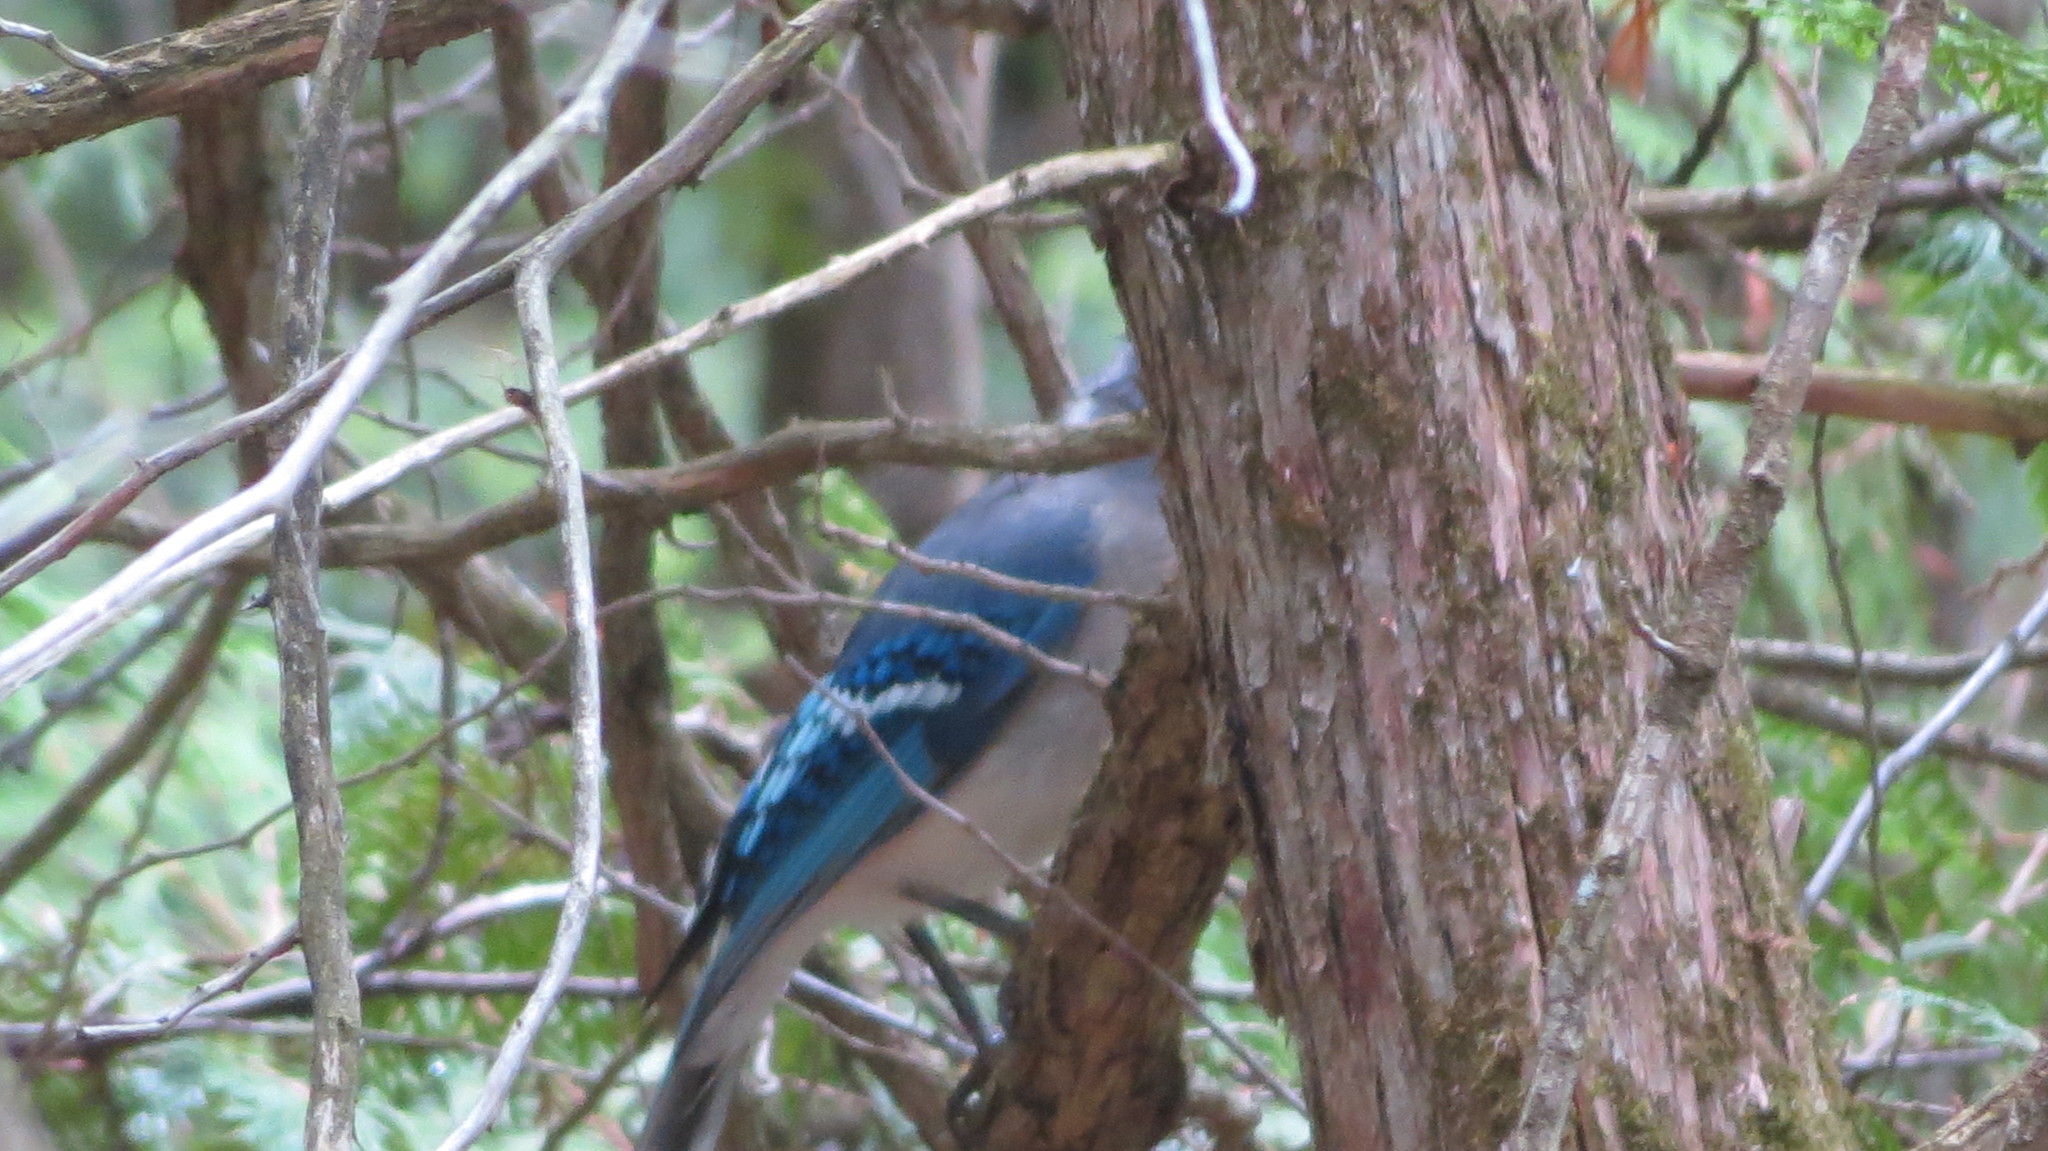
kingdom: Animalia
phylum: Chordata
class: Aves
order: Passeriformes
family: Corvidae
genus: Cyanocitta
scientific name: Cyanocitta cristata
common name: Blue jay
